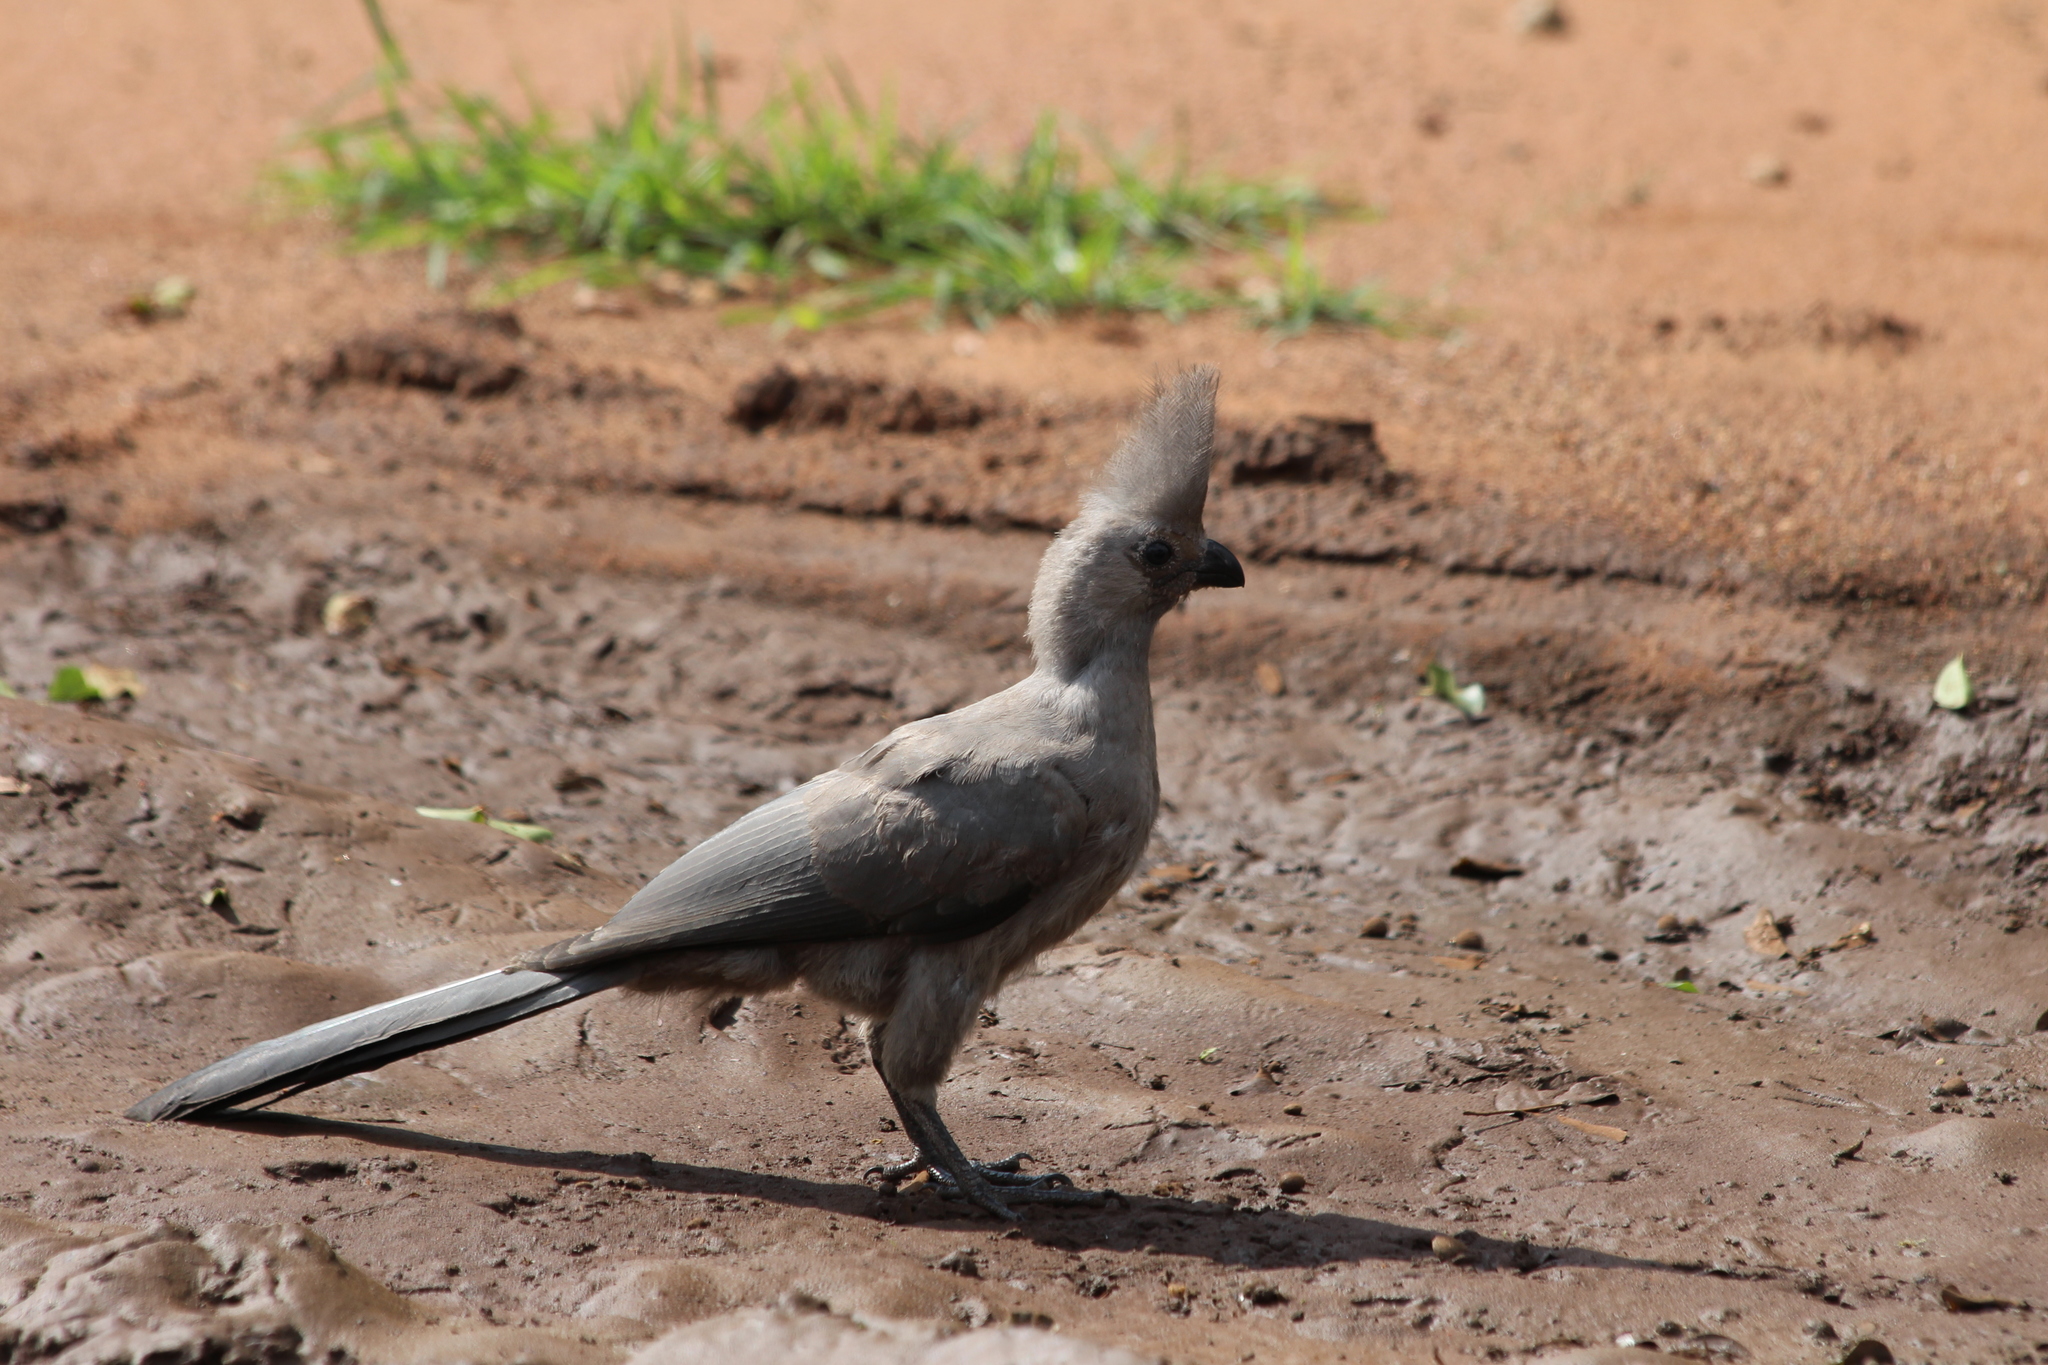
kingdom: Animalia
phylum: Chordata
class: Aves
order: Musophagiformes
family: Musophagidae
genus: Corythaixoides
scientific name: Corythaixoides concolor
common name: Grey go-away-bird
